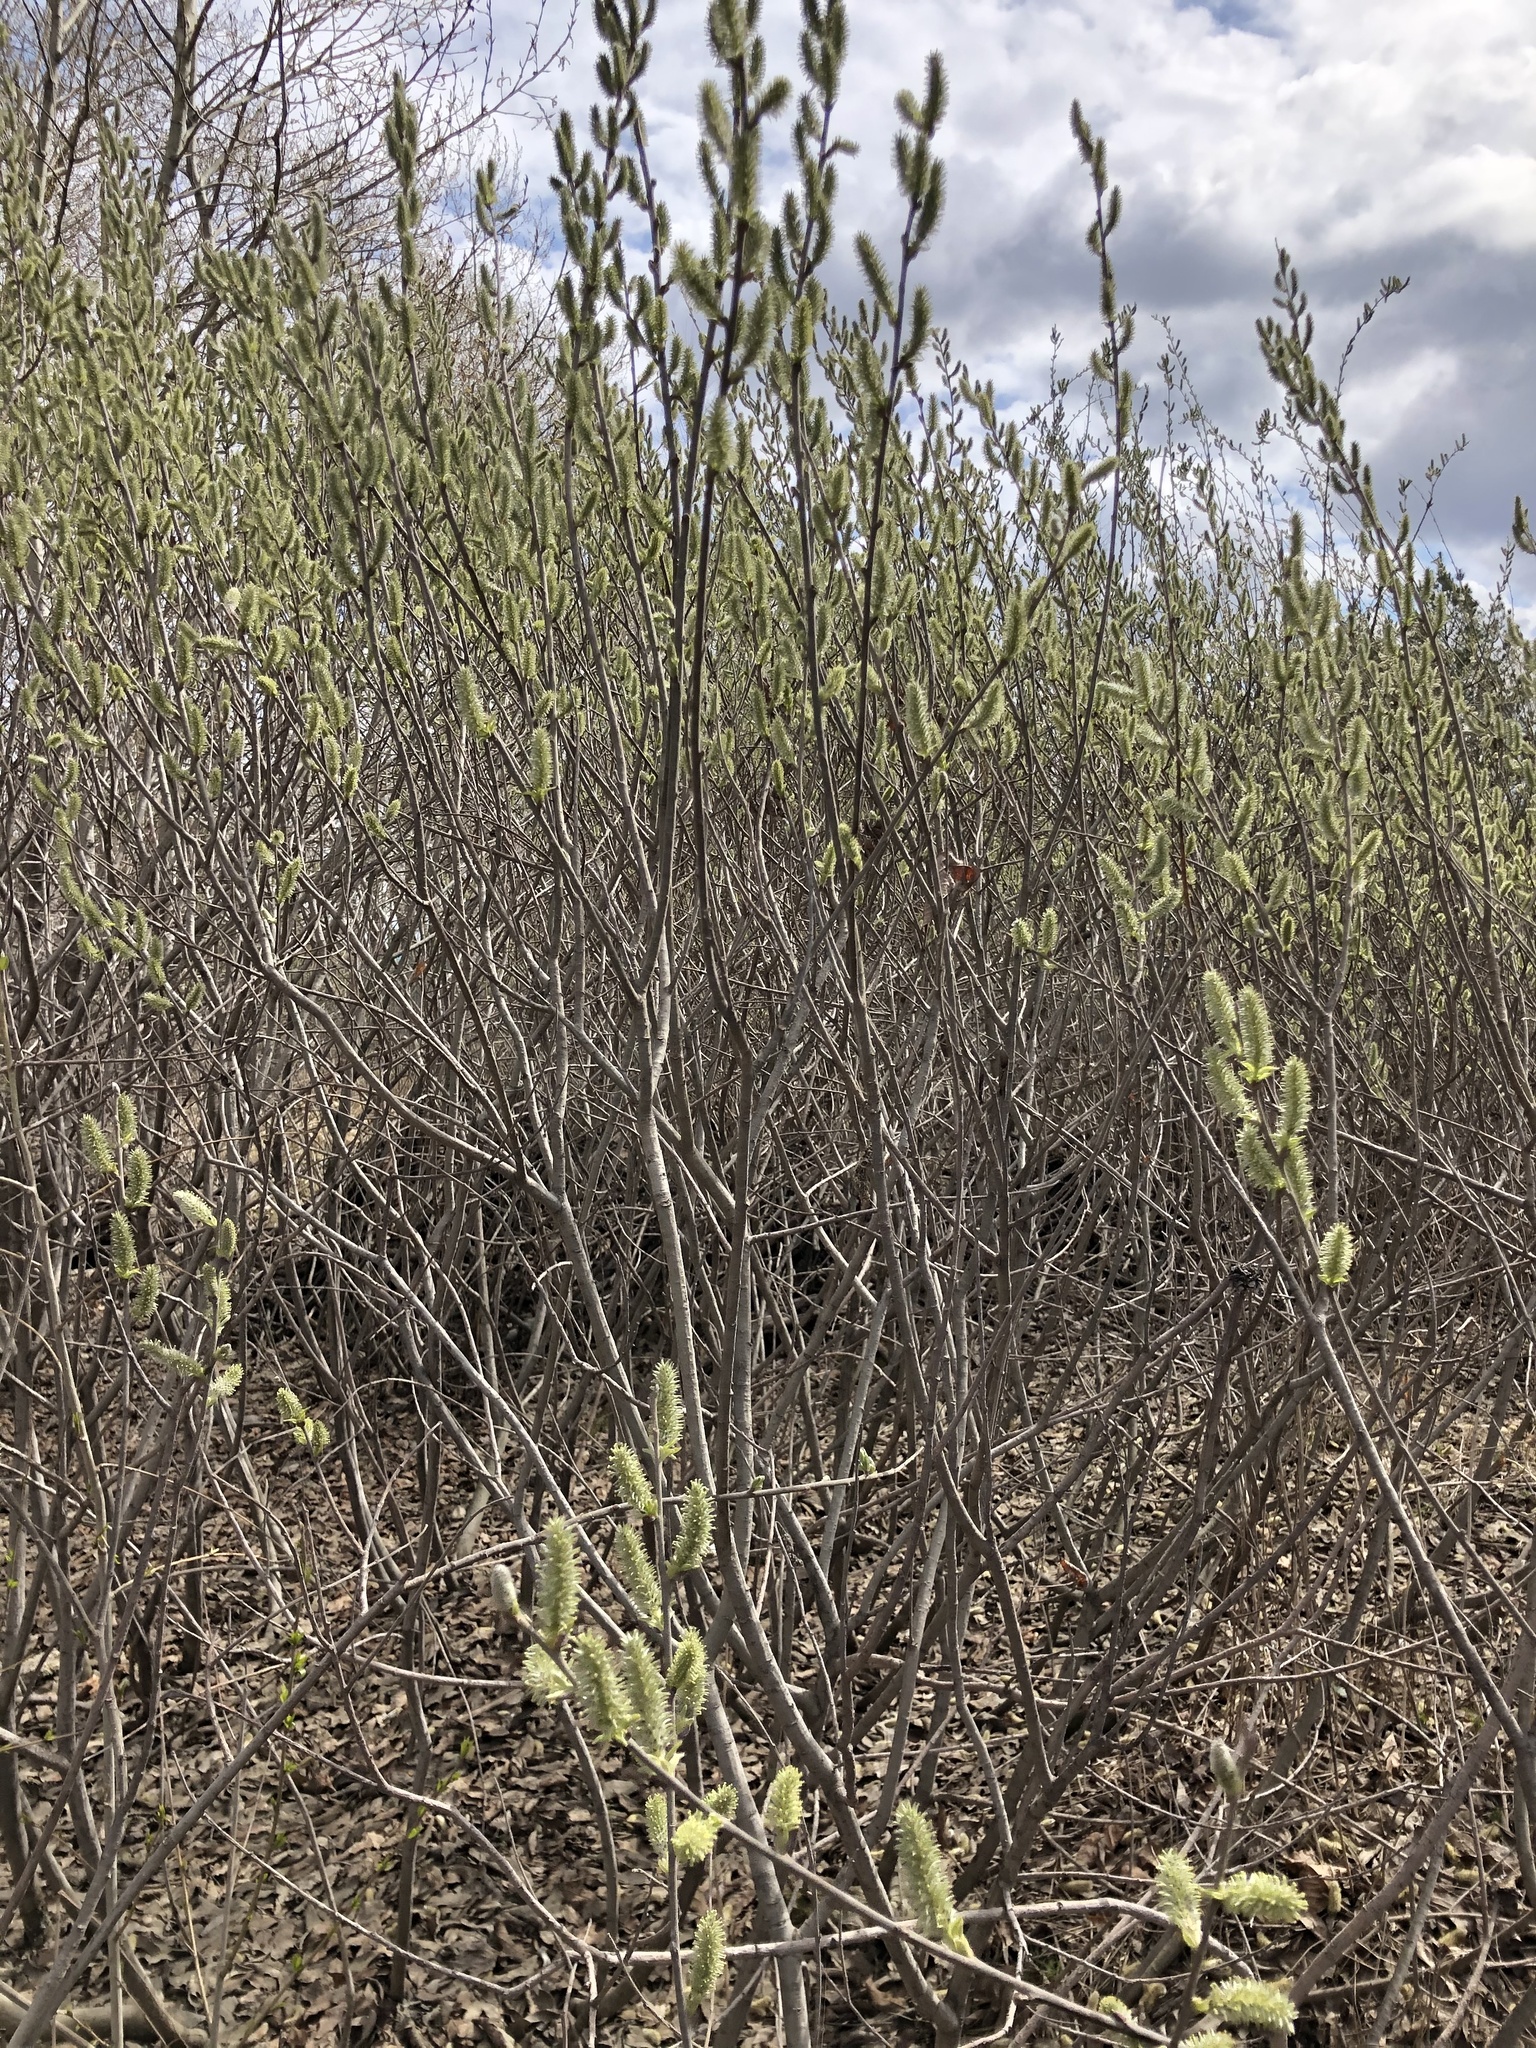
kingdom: Plantae
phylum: Tracheophyta
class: Magnoliopsida
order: Malpighiales
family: Salicaceae
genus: Salix
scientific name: Salix cinerea
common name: Common sallow
